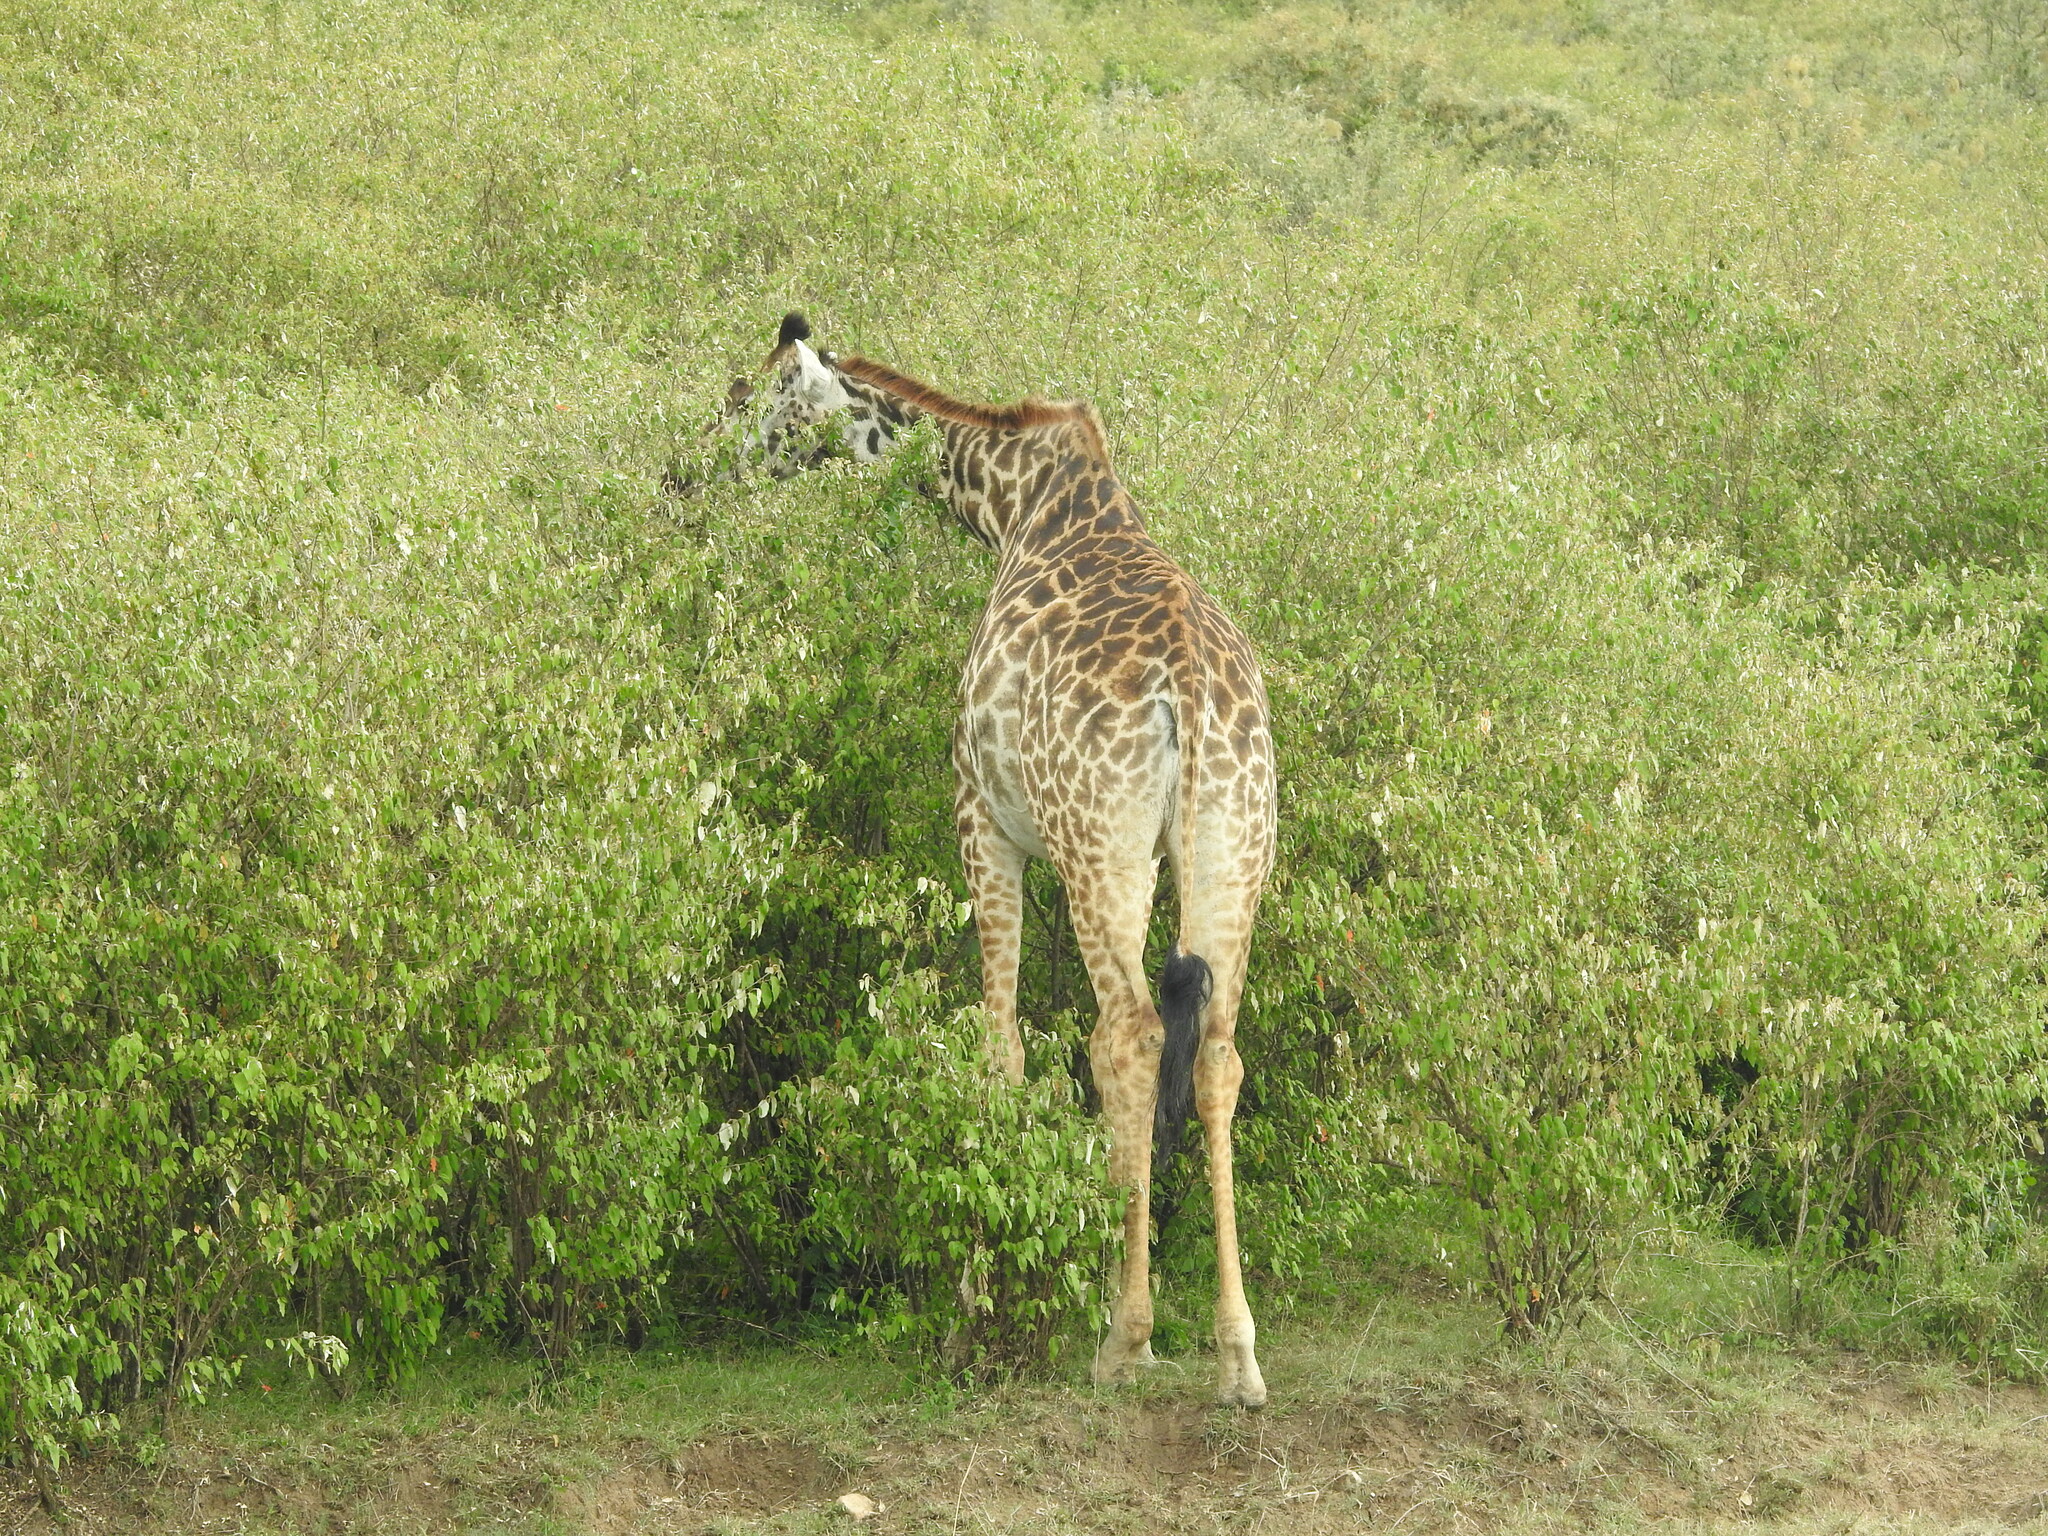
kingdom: Animalia
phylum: Chordata
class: Mammalia
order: Artiodactyla
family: Giraffidae
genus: Giraffa
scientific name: Giraffa tippelskirchi
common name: Masai giraffe
